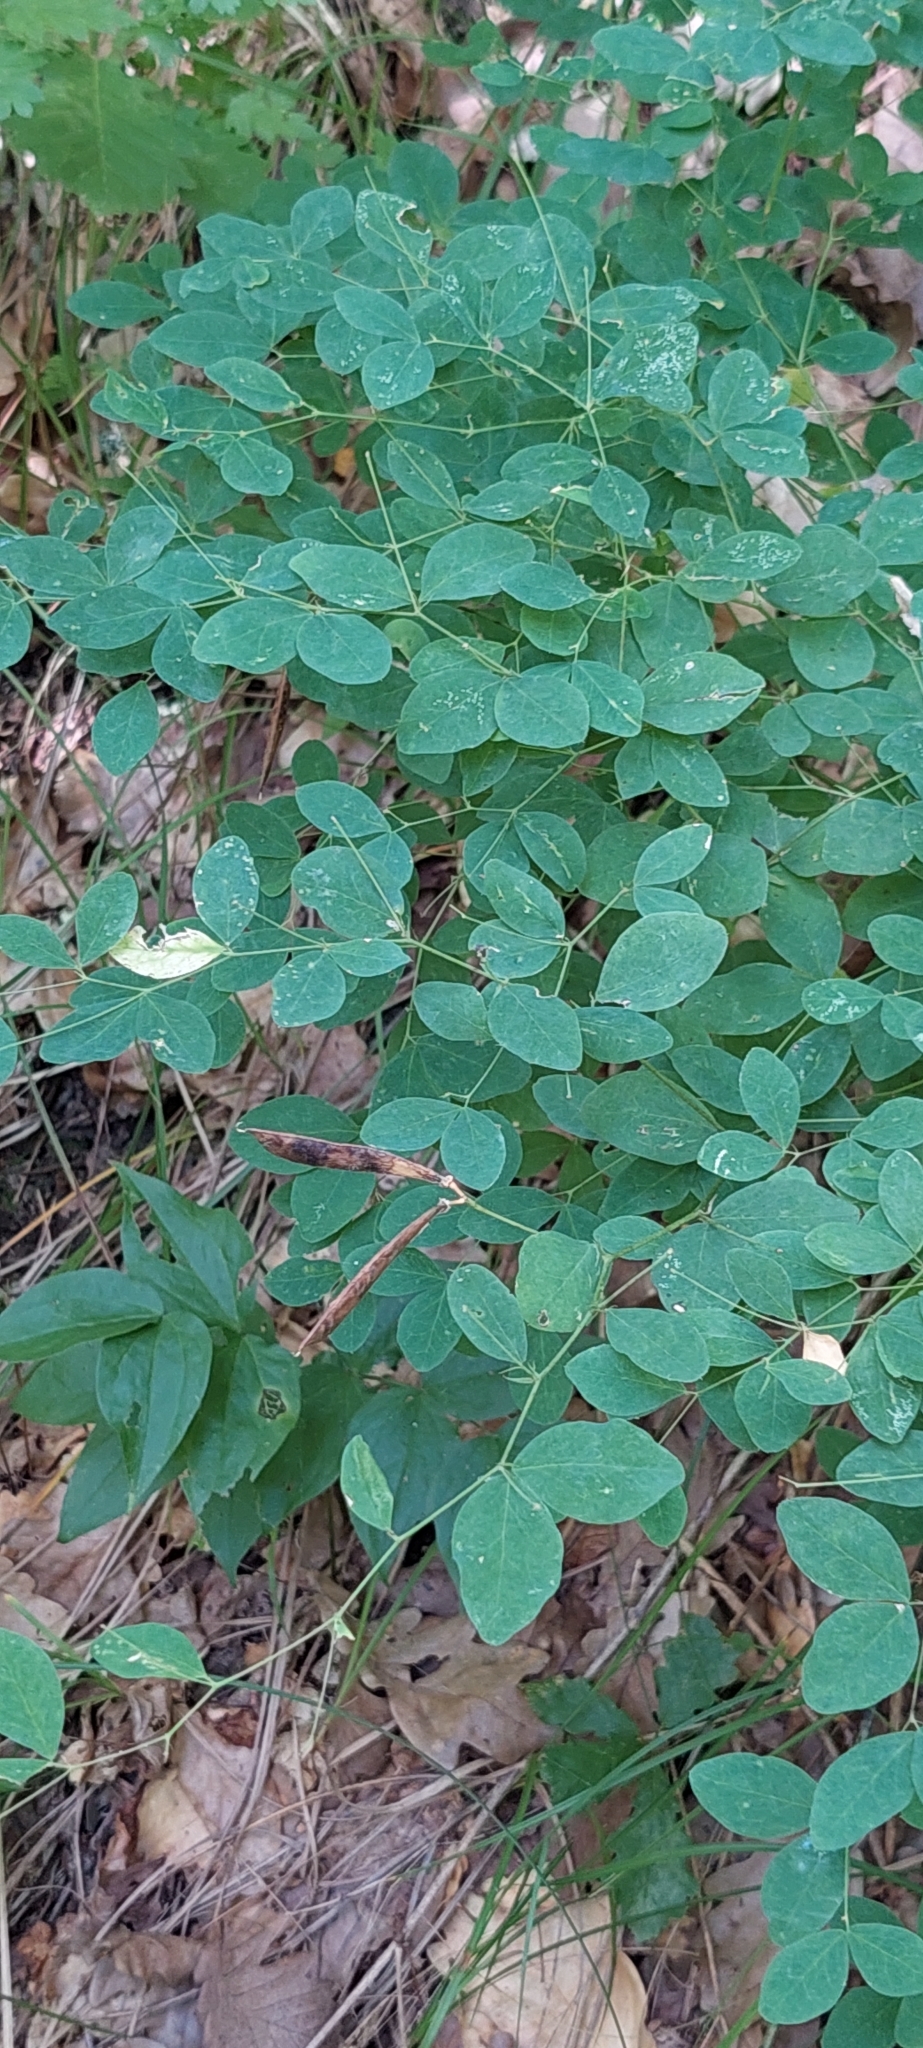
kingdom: Plantae
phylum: Tracheophyta
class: Magnoliopsida
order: Fabales
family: Fabaceae
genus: Lathyrus
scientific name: Lathyrus roseus
